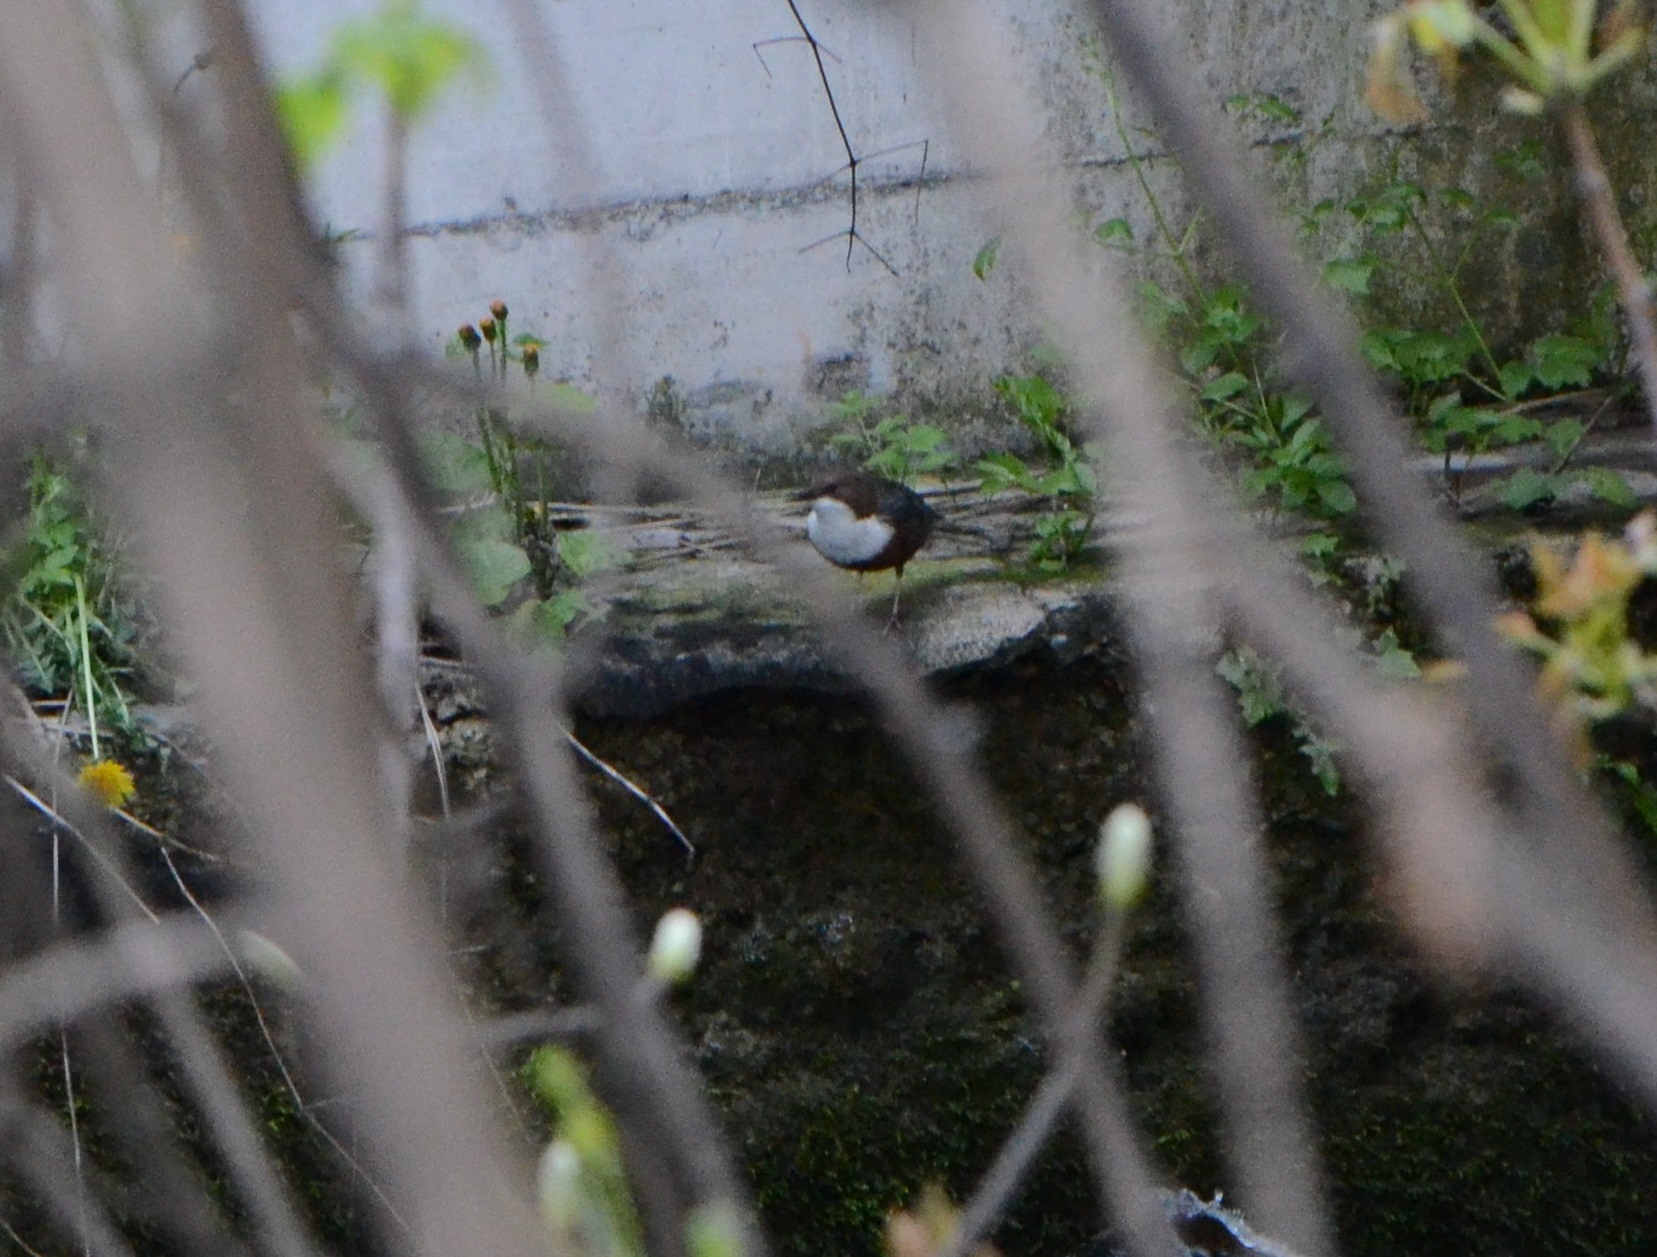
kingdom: Animalia
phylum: Chordata
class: Aves
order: Passeriformes
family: Cinclidae
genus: Cinclus
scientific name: Cinclus cinclus
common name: White-throated dipper
